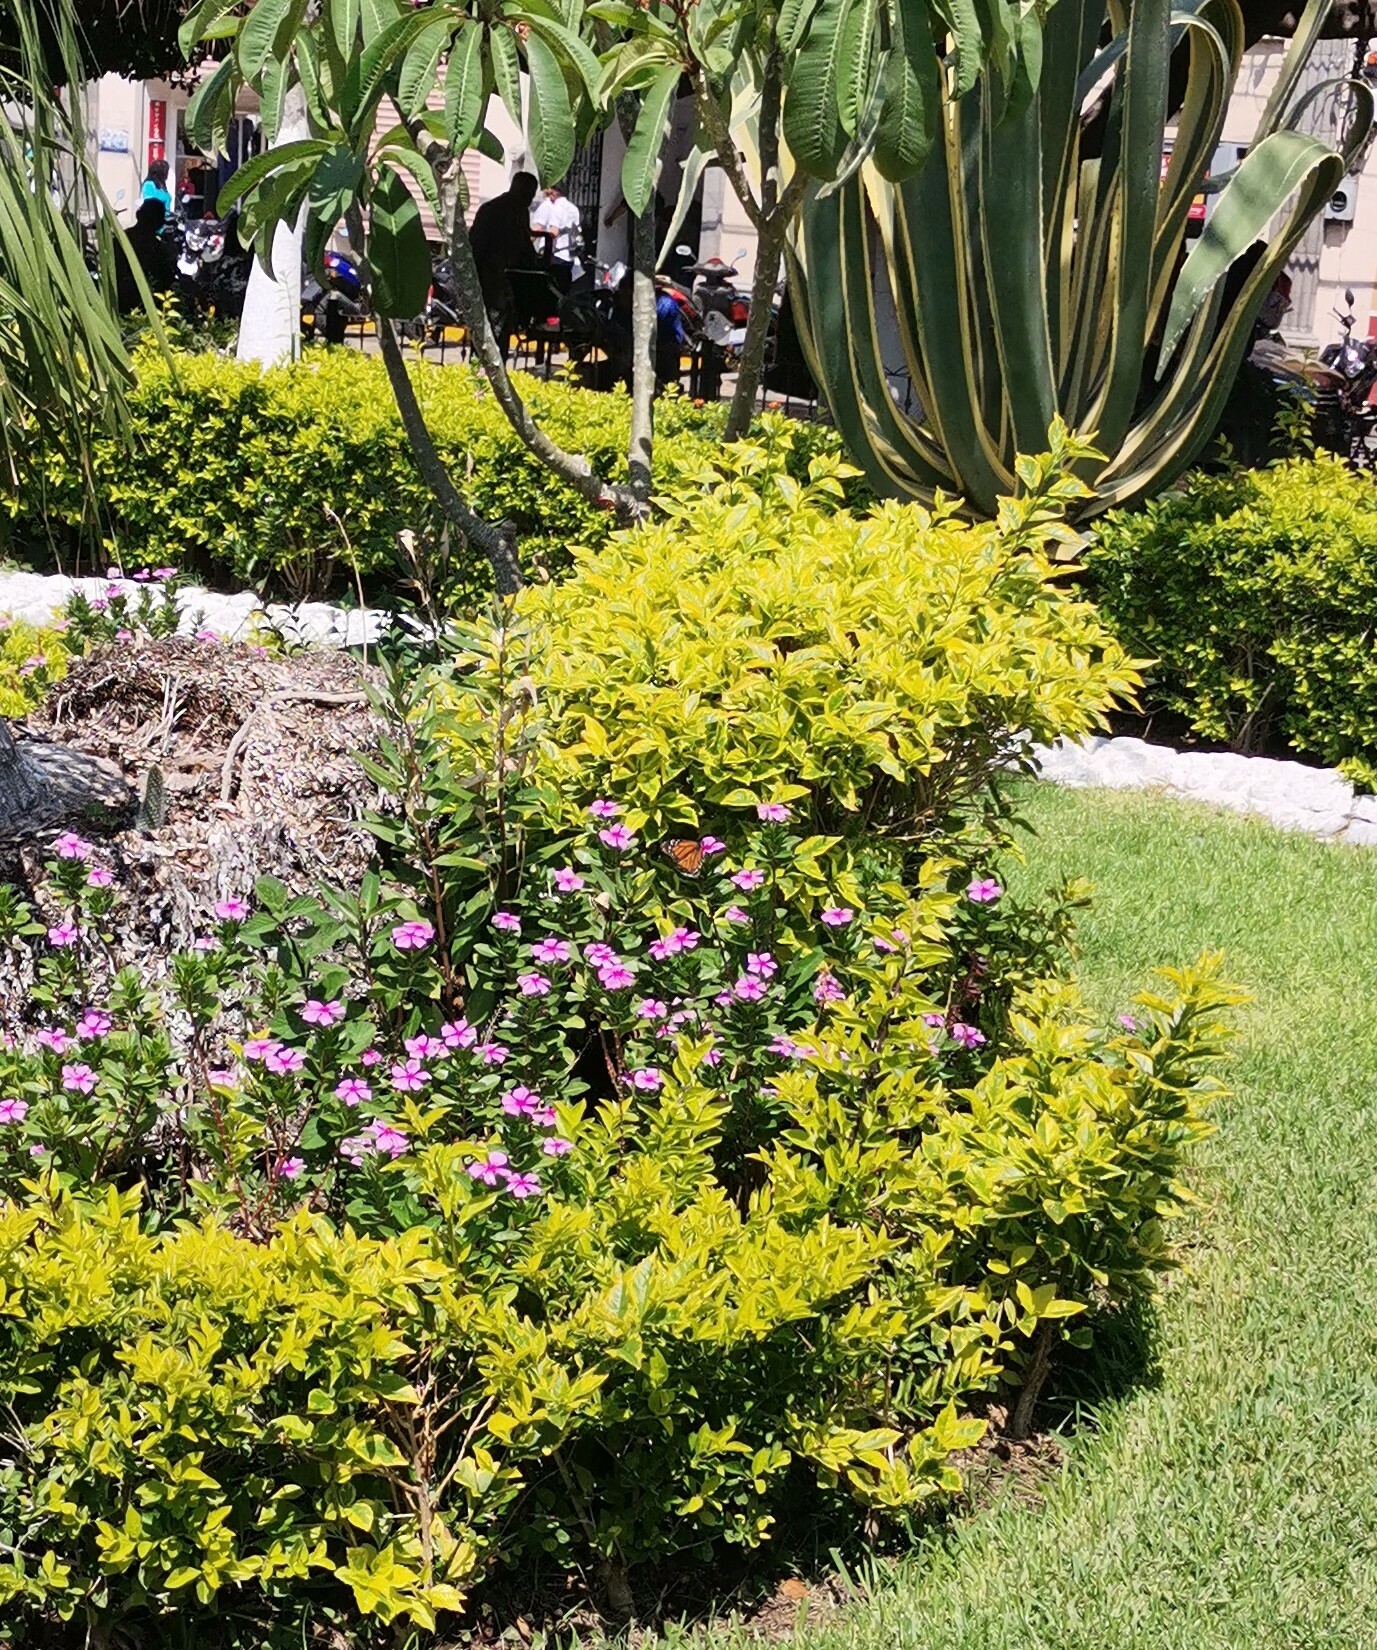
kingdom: Animalia
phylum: Arthropoda
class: Insecta
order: Lepidoptera
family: Nymphalidae
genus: Danaus
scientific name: Danaus plexippus
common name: Monarch
